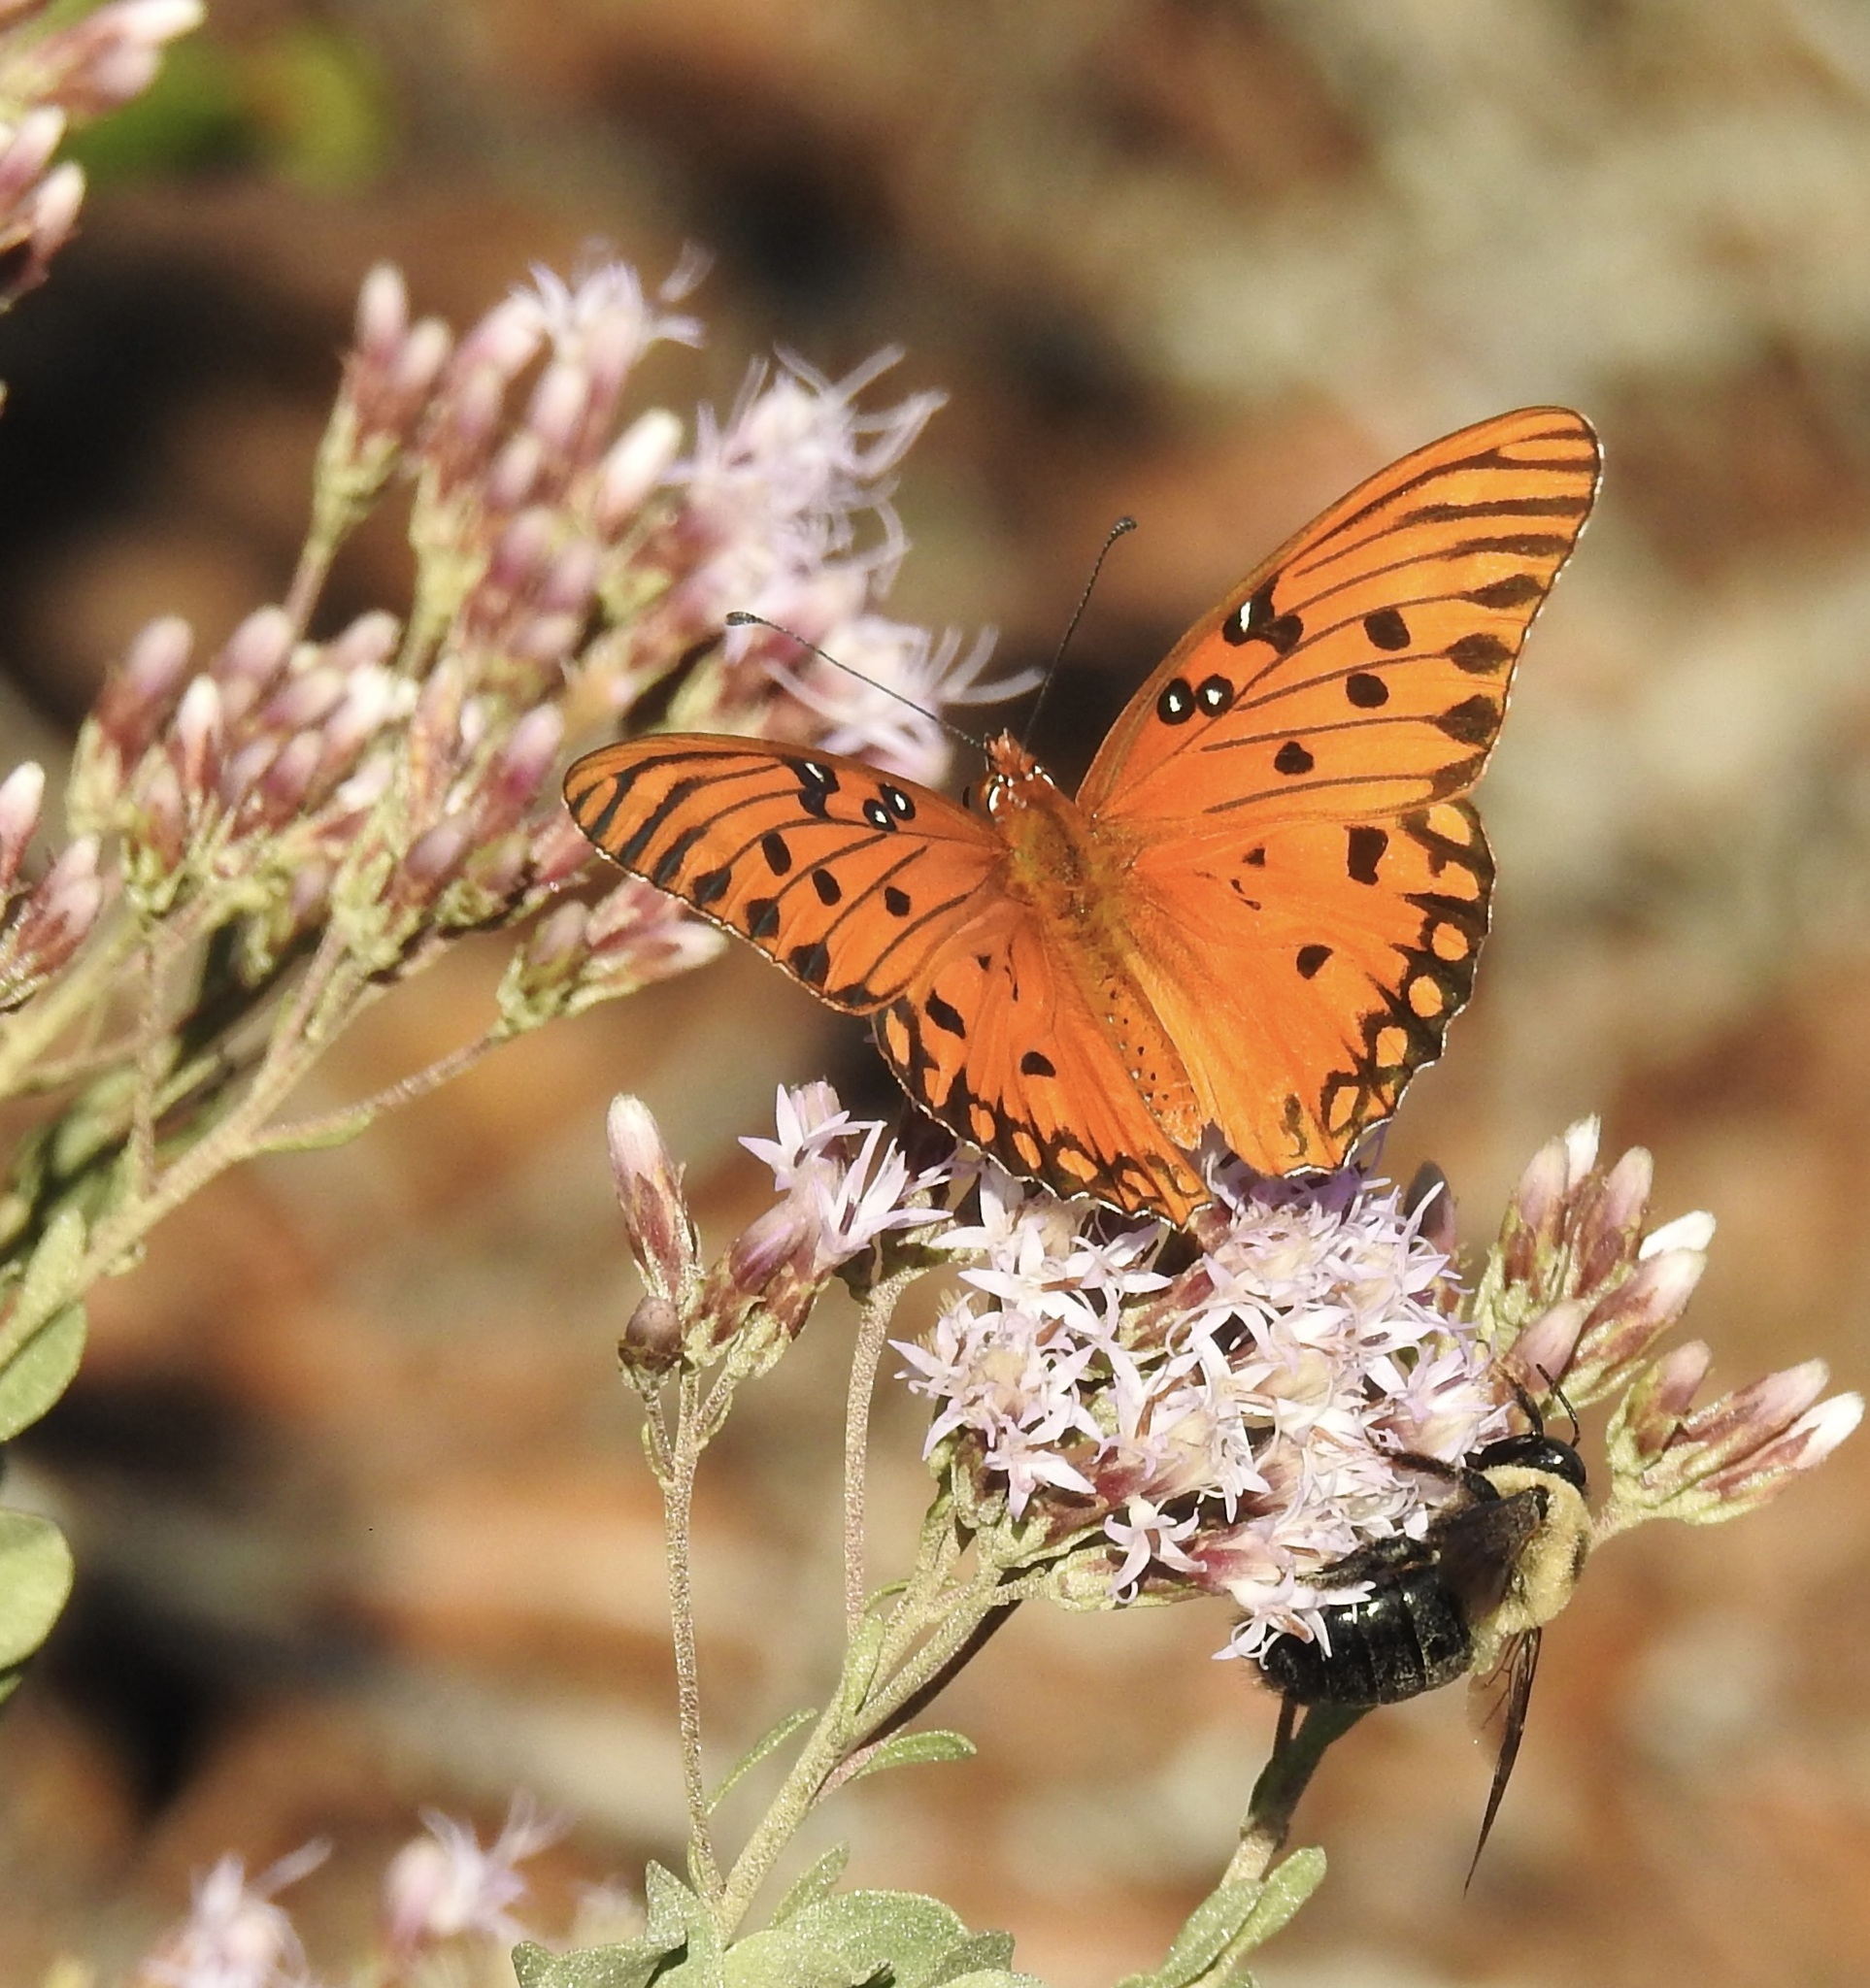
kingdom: Animalia
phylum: Arthropoda
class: Insecta
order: Lepidoptera
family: Nymphalidae
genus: Dione
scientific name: Dione vanillae
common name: Gulf fritillary
